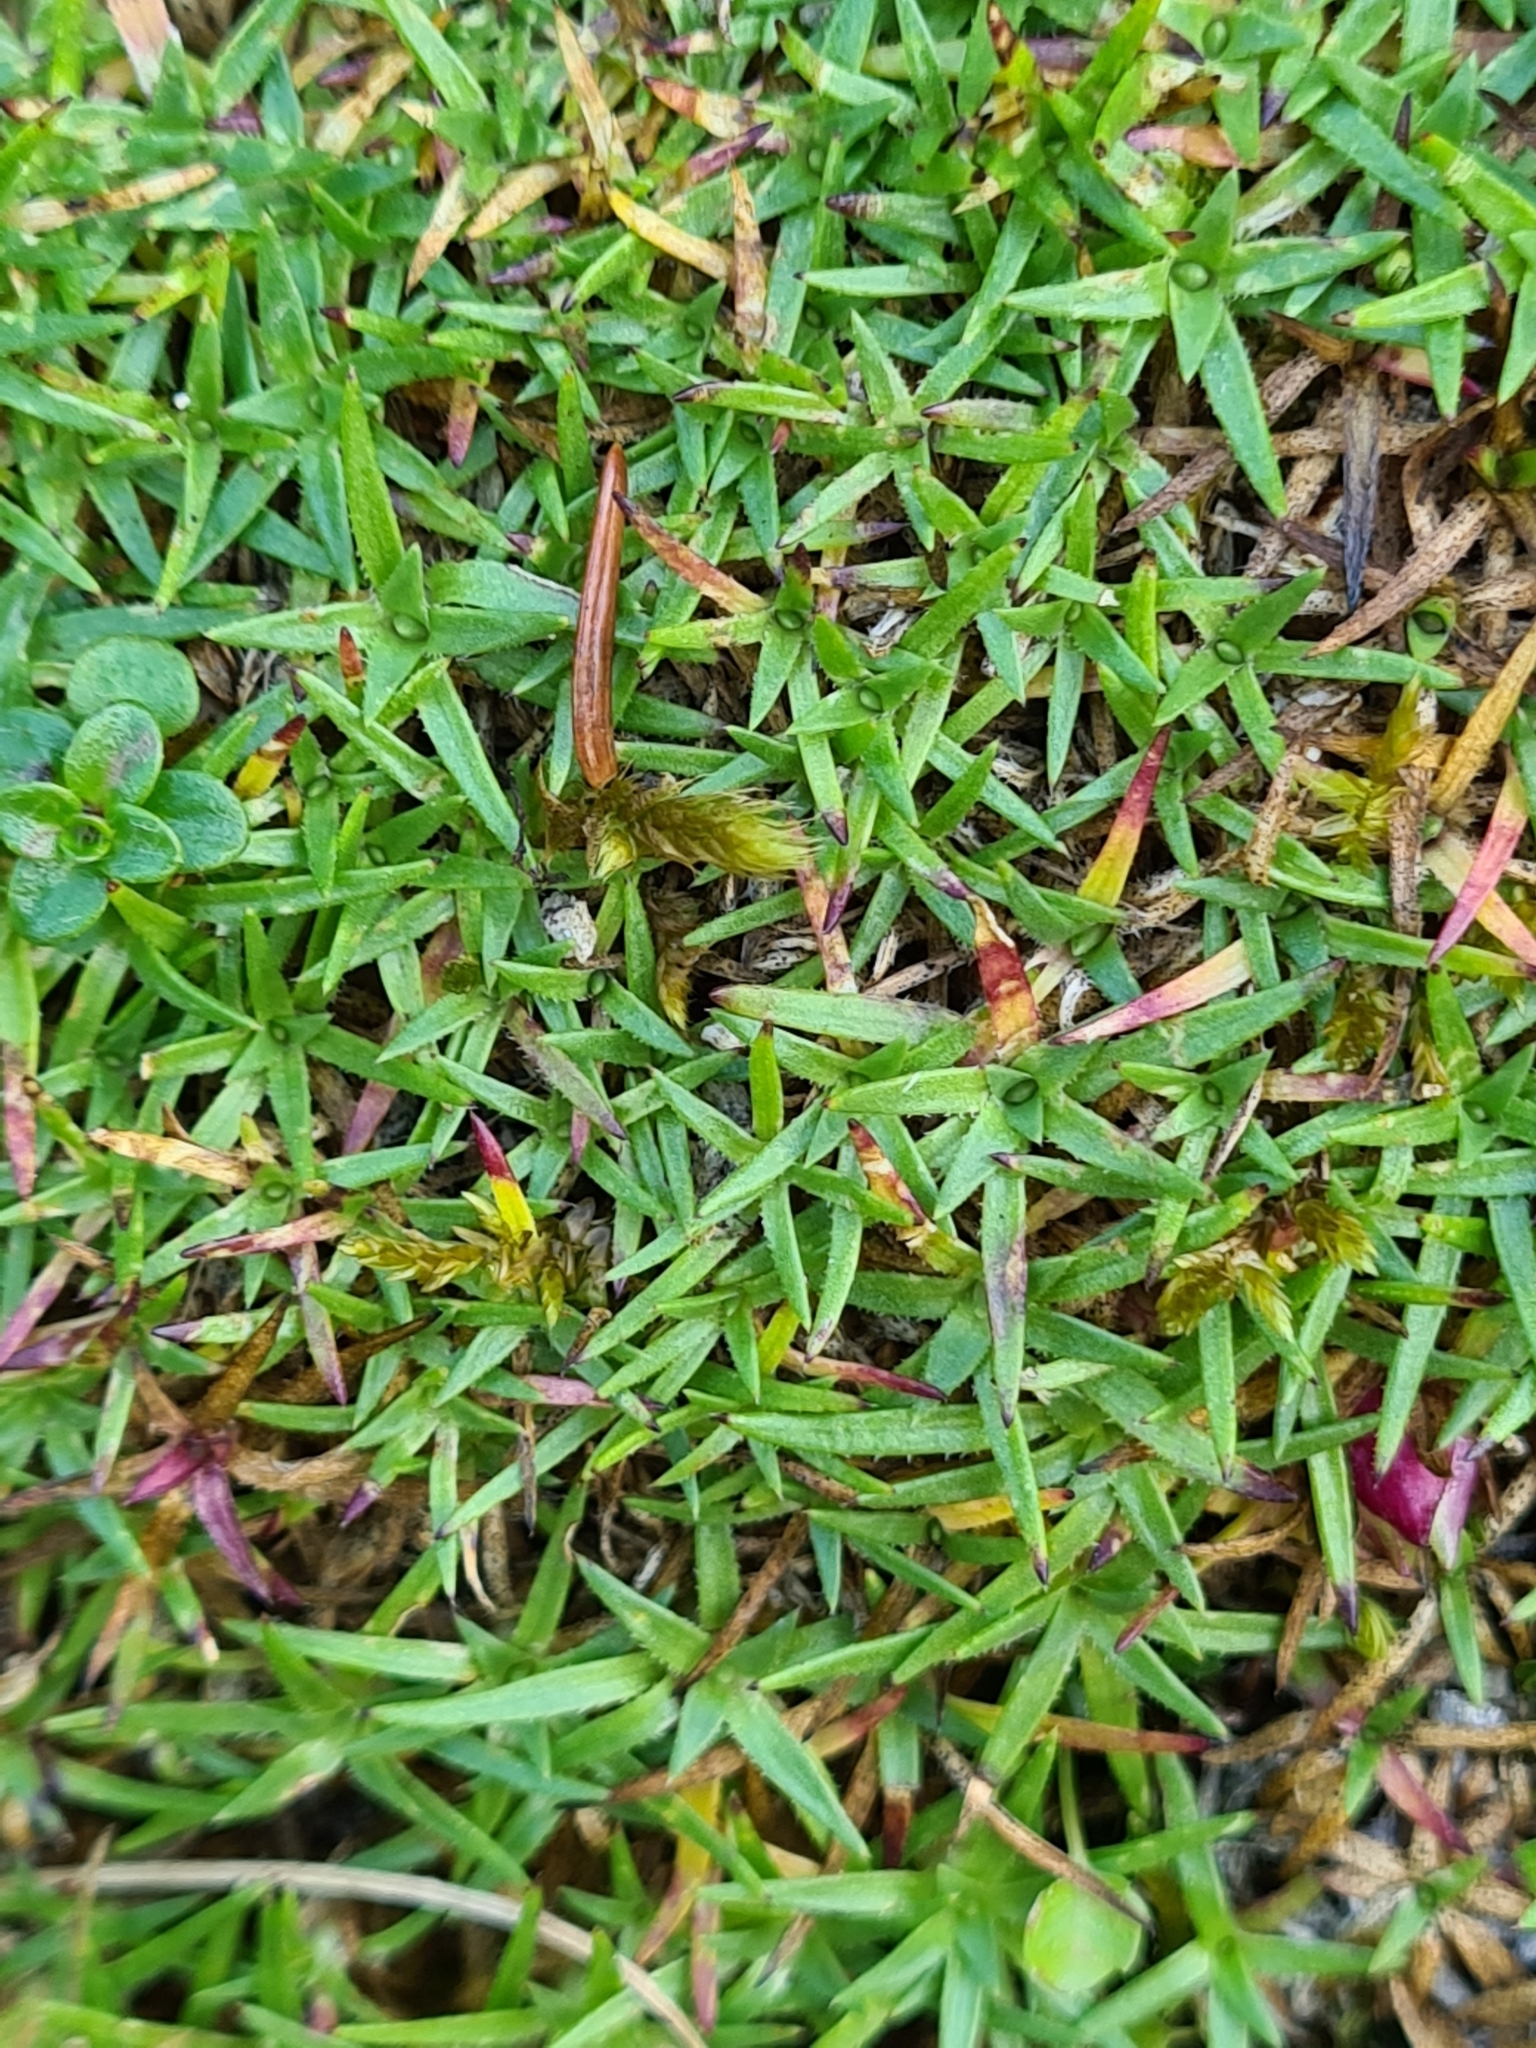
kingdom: Plantae
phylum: Tracheophyta
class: Magnoliopsida
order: Caryophyllales
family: Caryophyllaceae
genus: Silene
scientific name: Silene acaulis
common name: Moss campion
